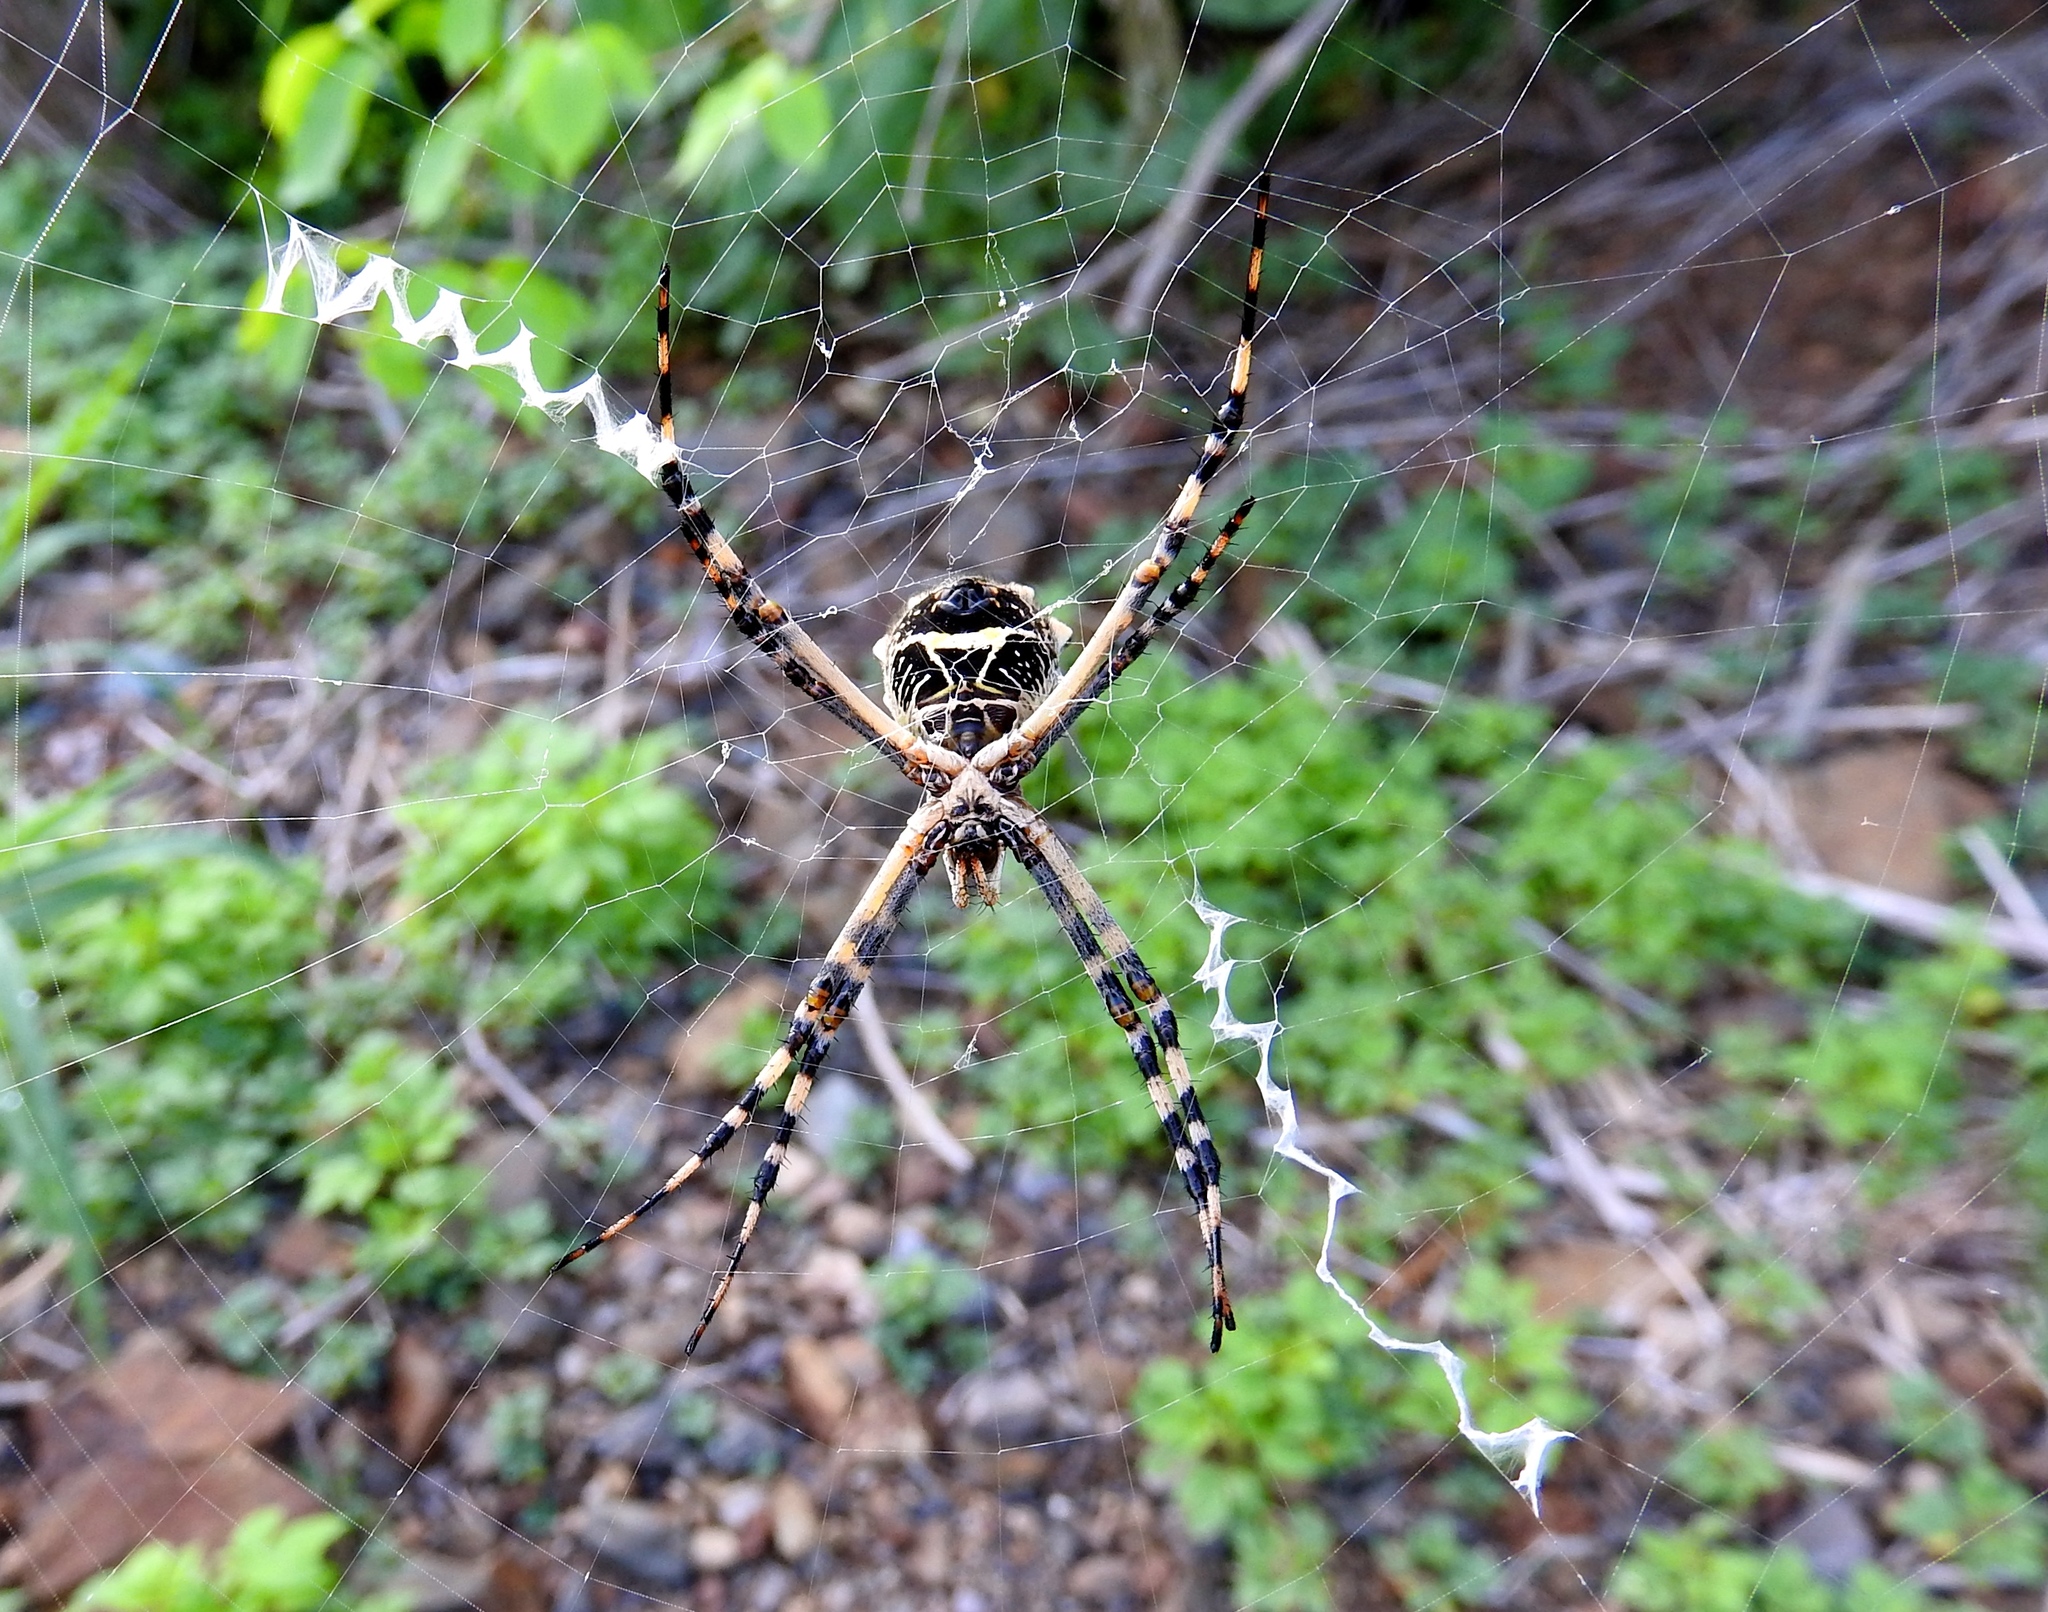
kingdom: Animalia
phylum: Arthropoda
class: Arachnida
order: Araneae
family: Araneidae
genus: Argiope
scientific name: Argiope argentata
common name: Orb weavers
